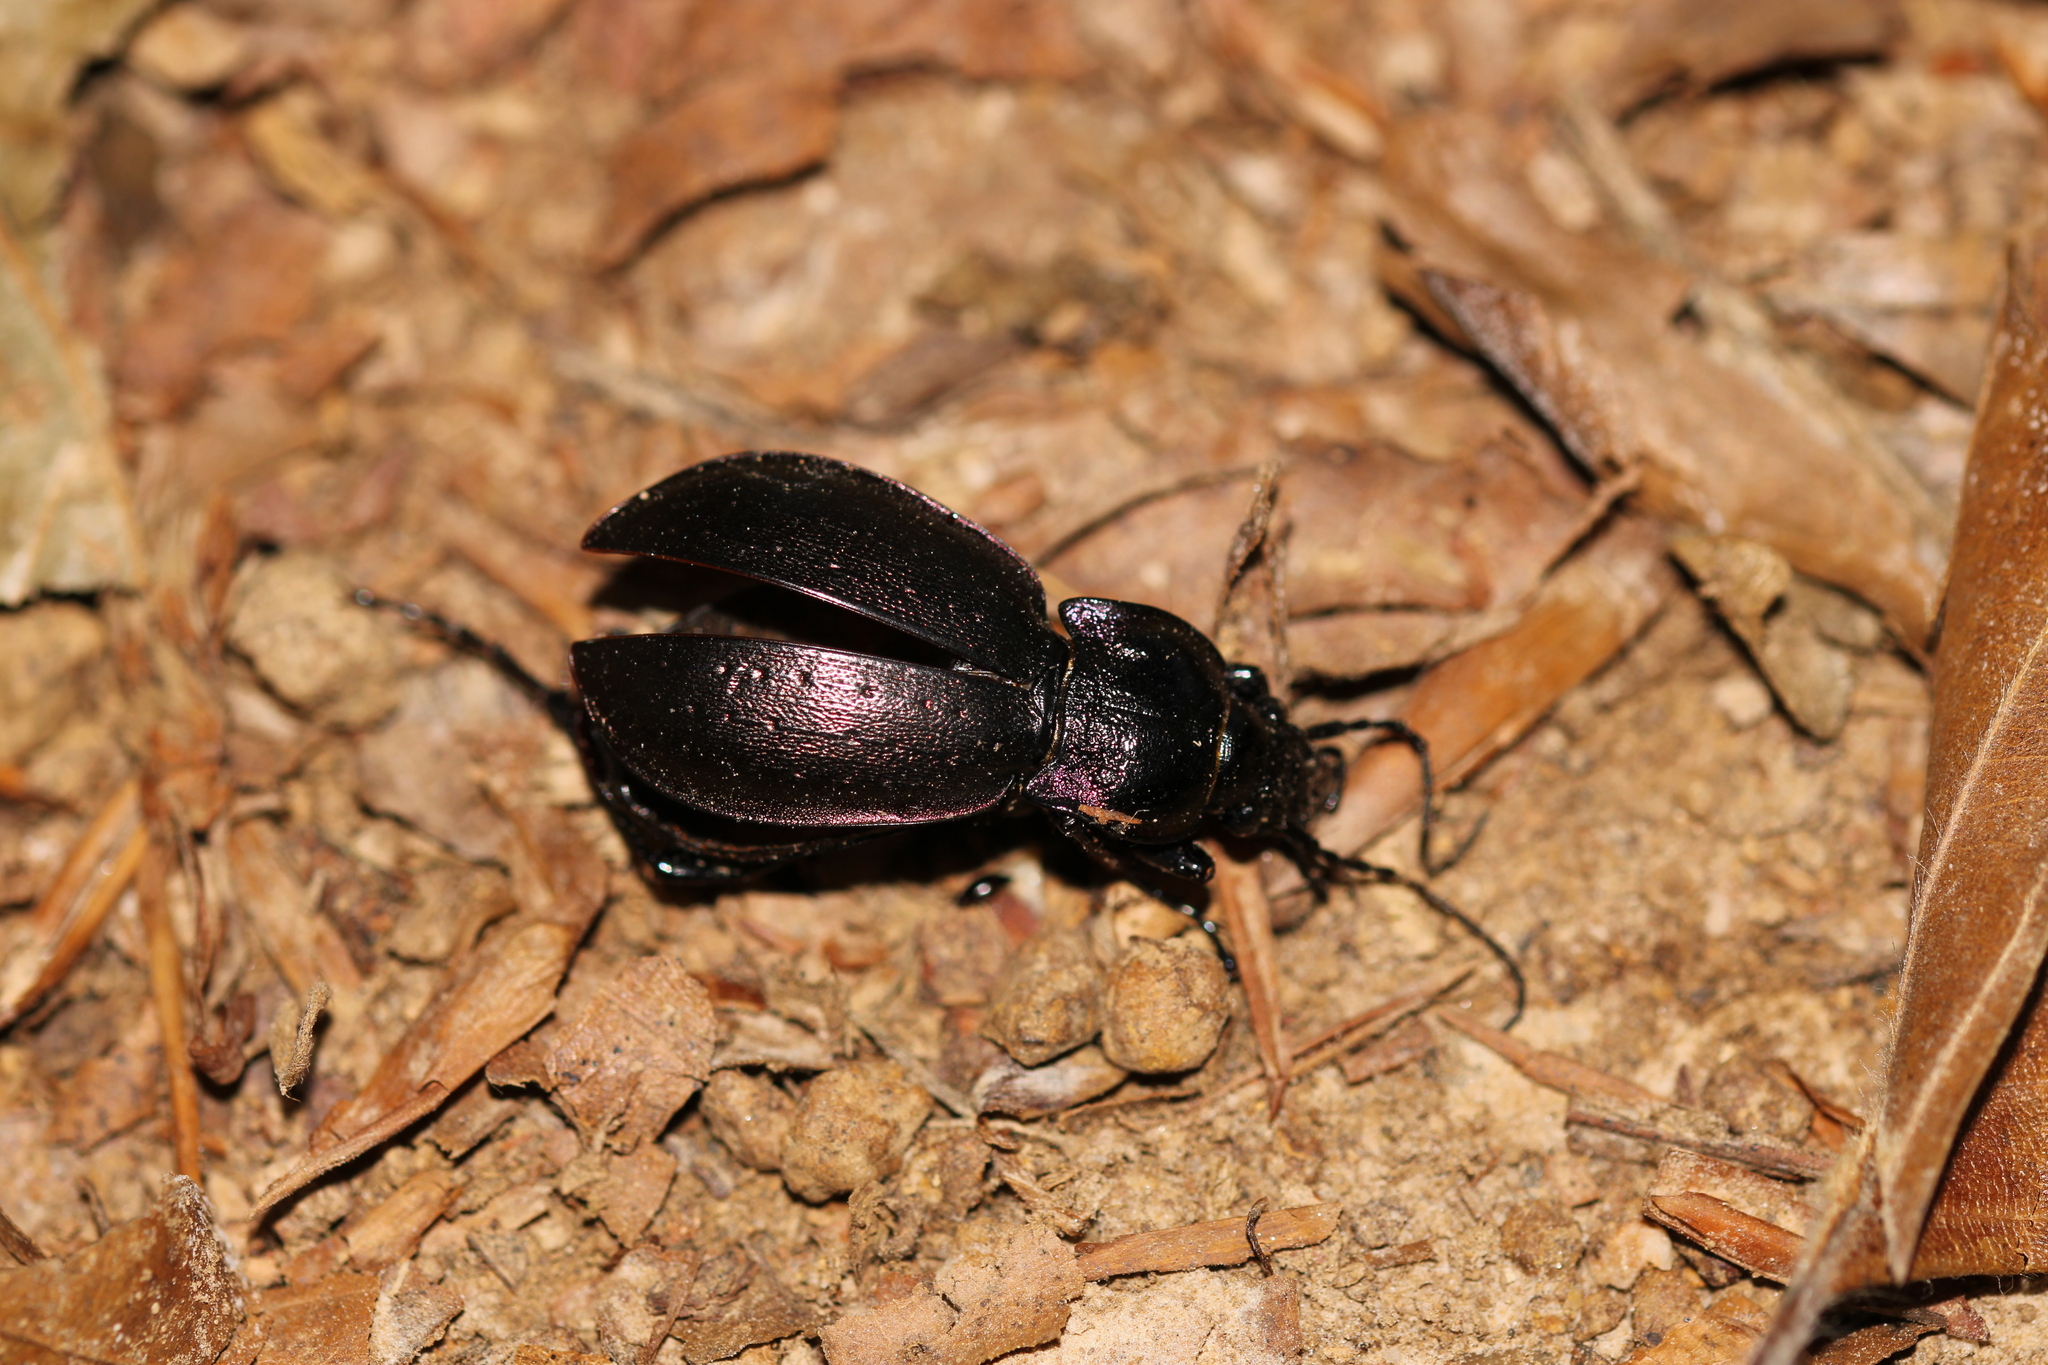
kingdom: Animalia
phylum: Arthropoda
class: Insecta
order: Coleoptera
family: Carabidae
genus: Carabus
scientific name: Carabus nemoralis
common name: European ground beetle
